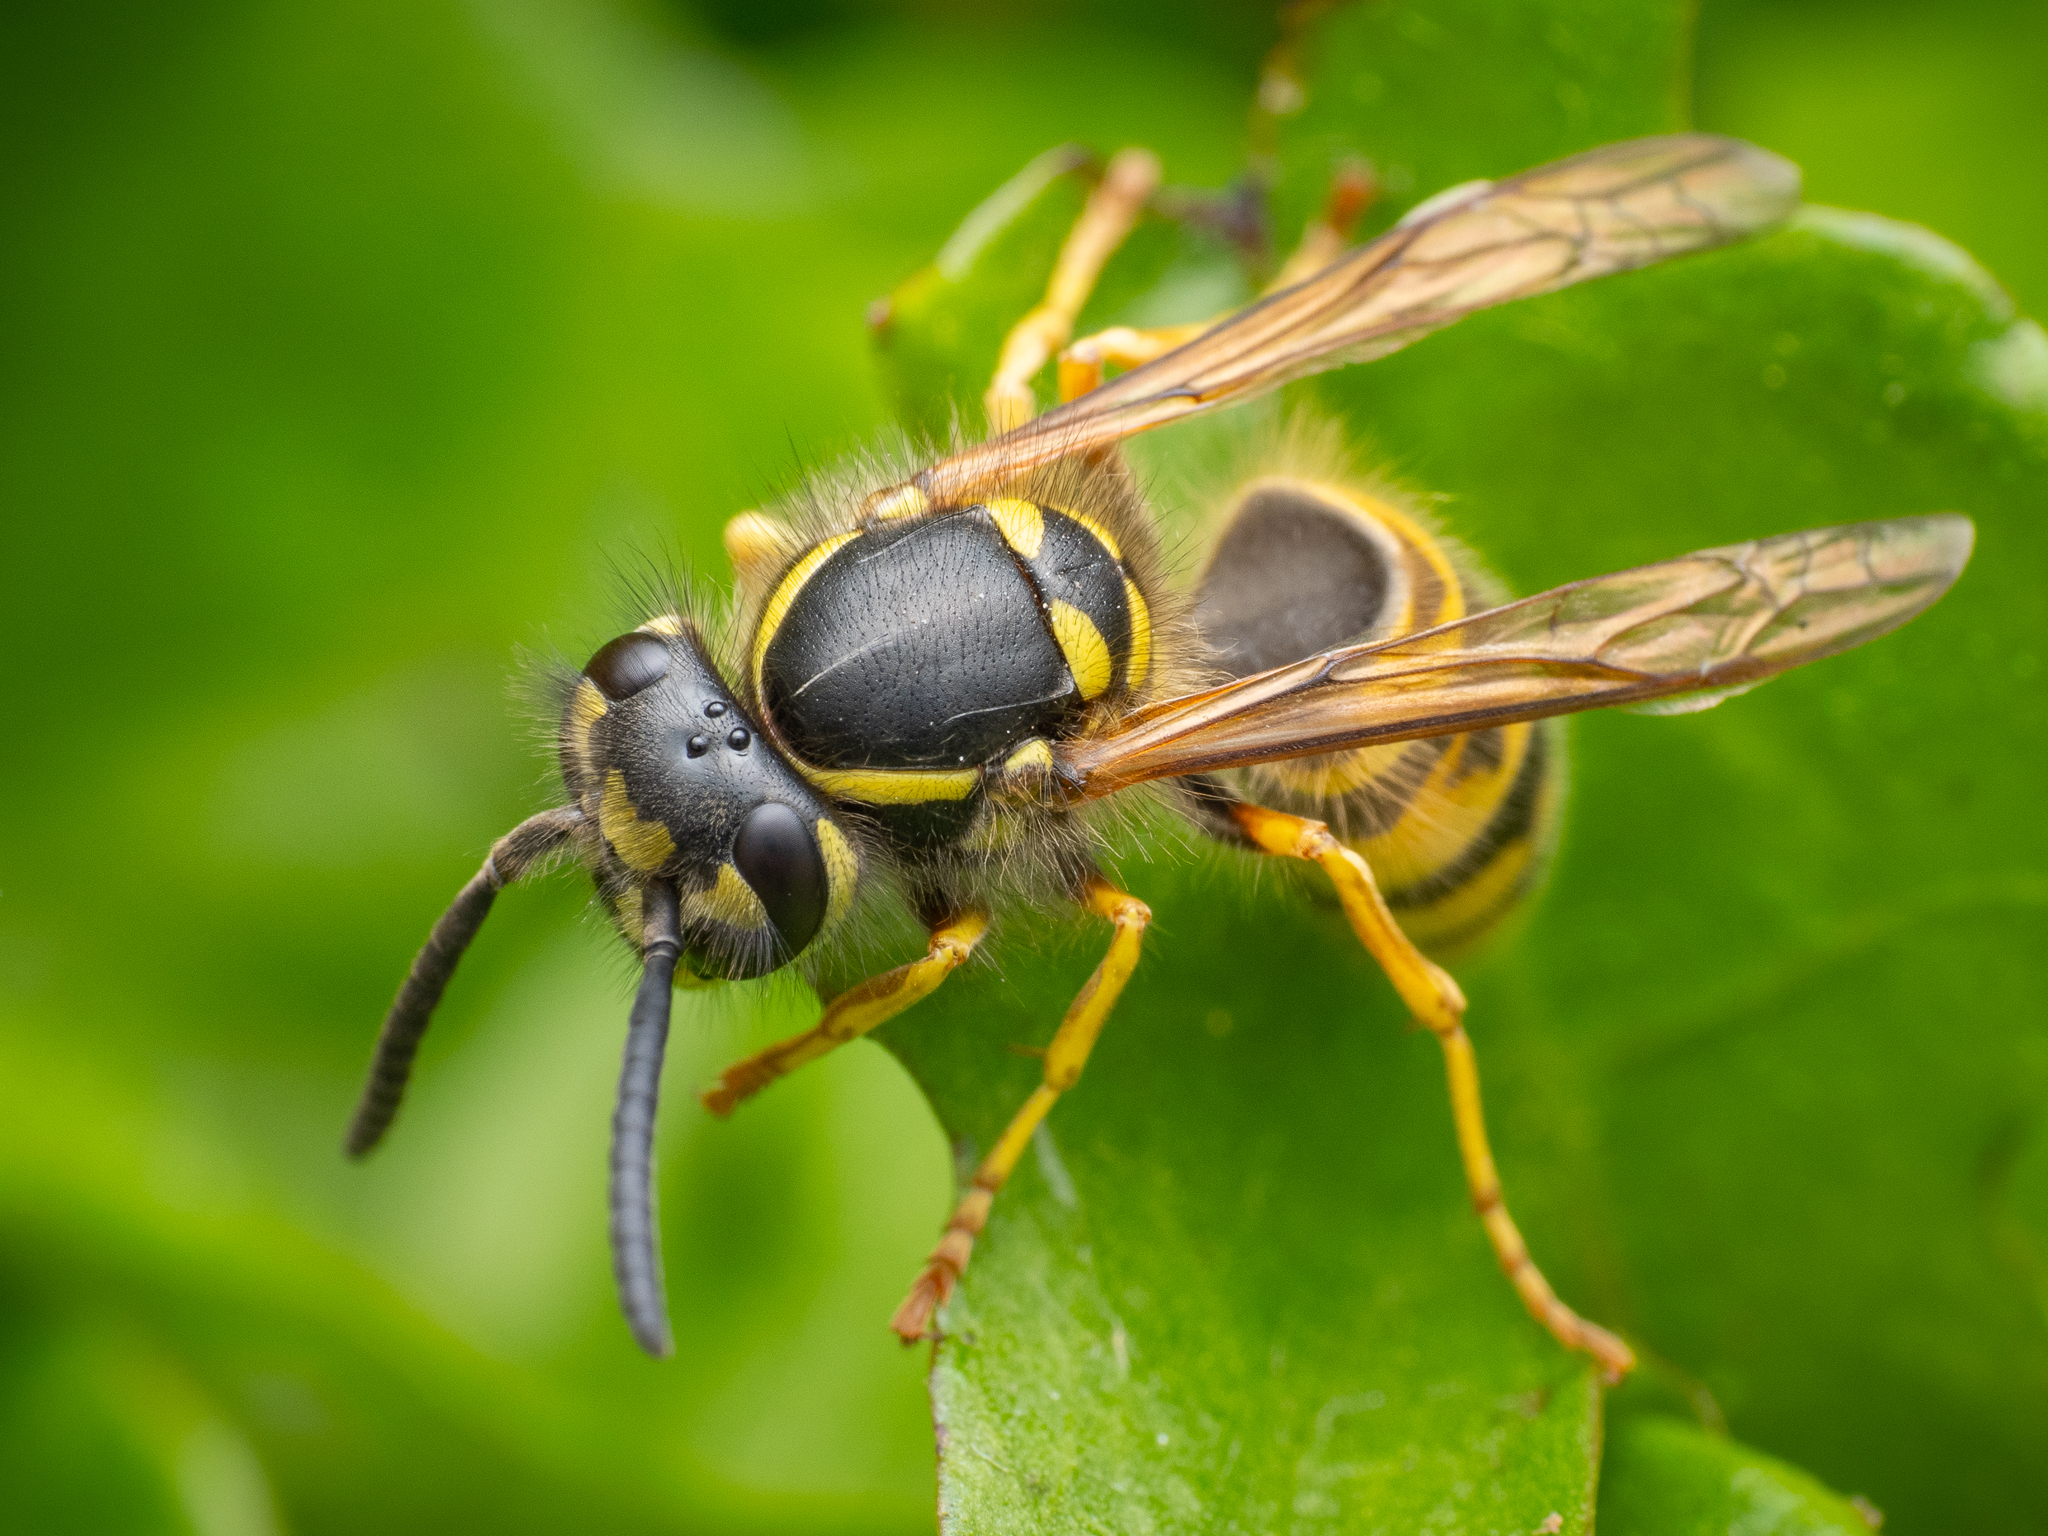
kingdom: Animalia
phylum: Arthropoda
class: Insecta
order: Hymenoptera
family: Vespidae
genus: Vespula
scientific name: Vespula vulgaris
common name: Common wasp
